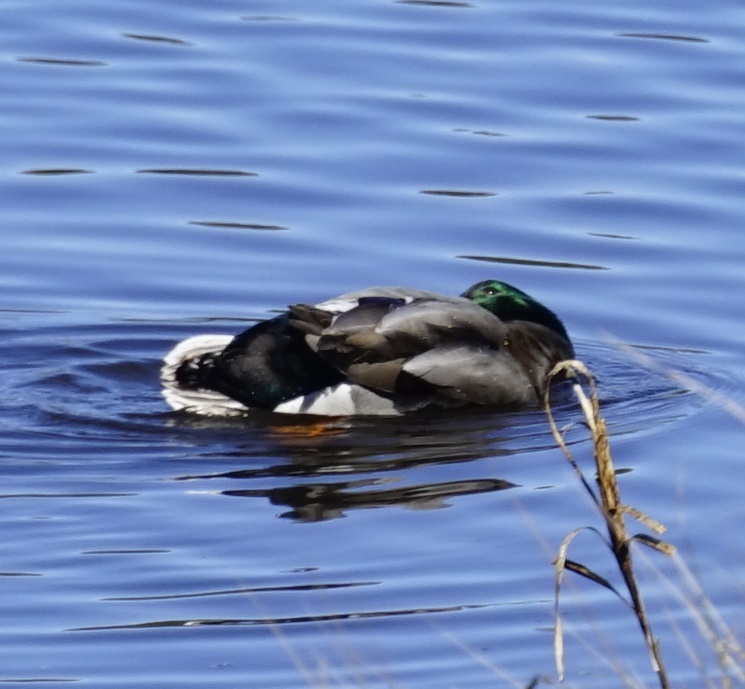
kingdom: Animalia
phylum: Chordata
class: Aves
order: Anseriformes
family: Anatidae
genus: Anas
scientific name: Anas platyrhynchos
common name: Mallard
